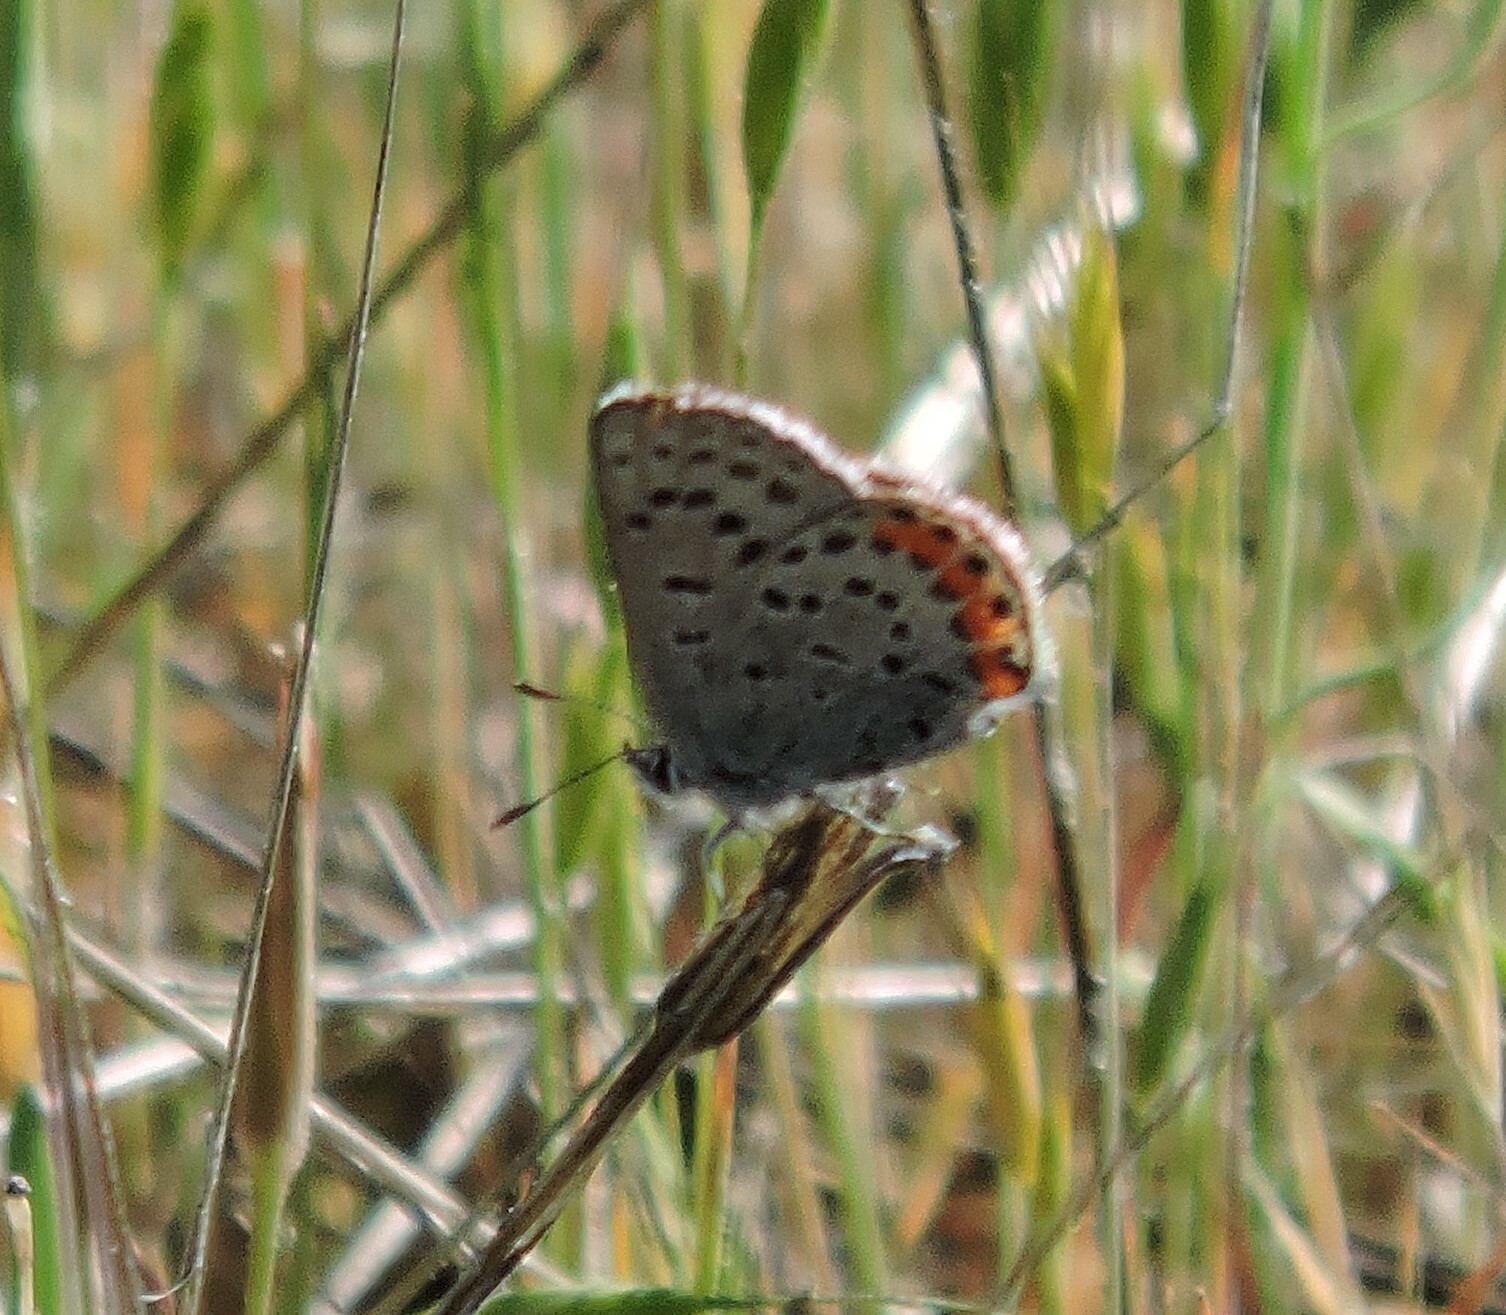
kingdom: Animalia
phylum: Arthropoda
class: Insecta
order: Lepidoptera
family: Lycaenidae
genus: Icaricia
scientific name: Icaricia acmon
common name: Acmon blue
